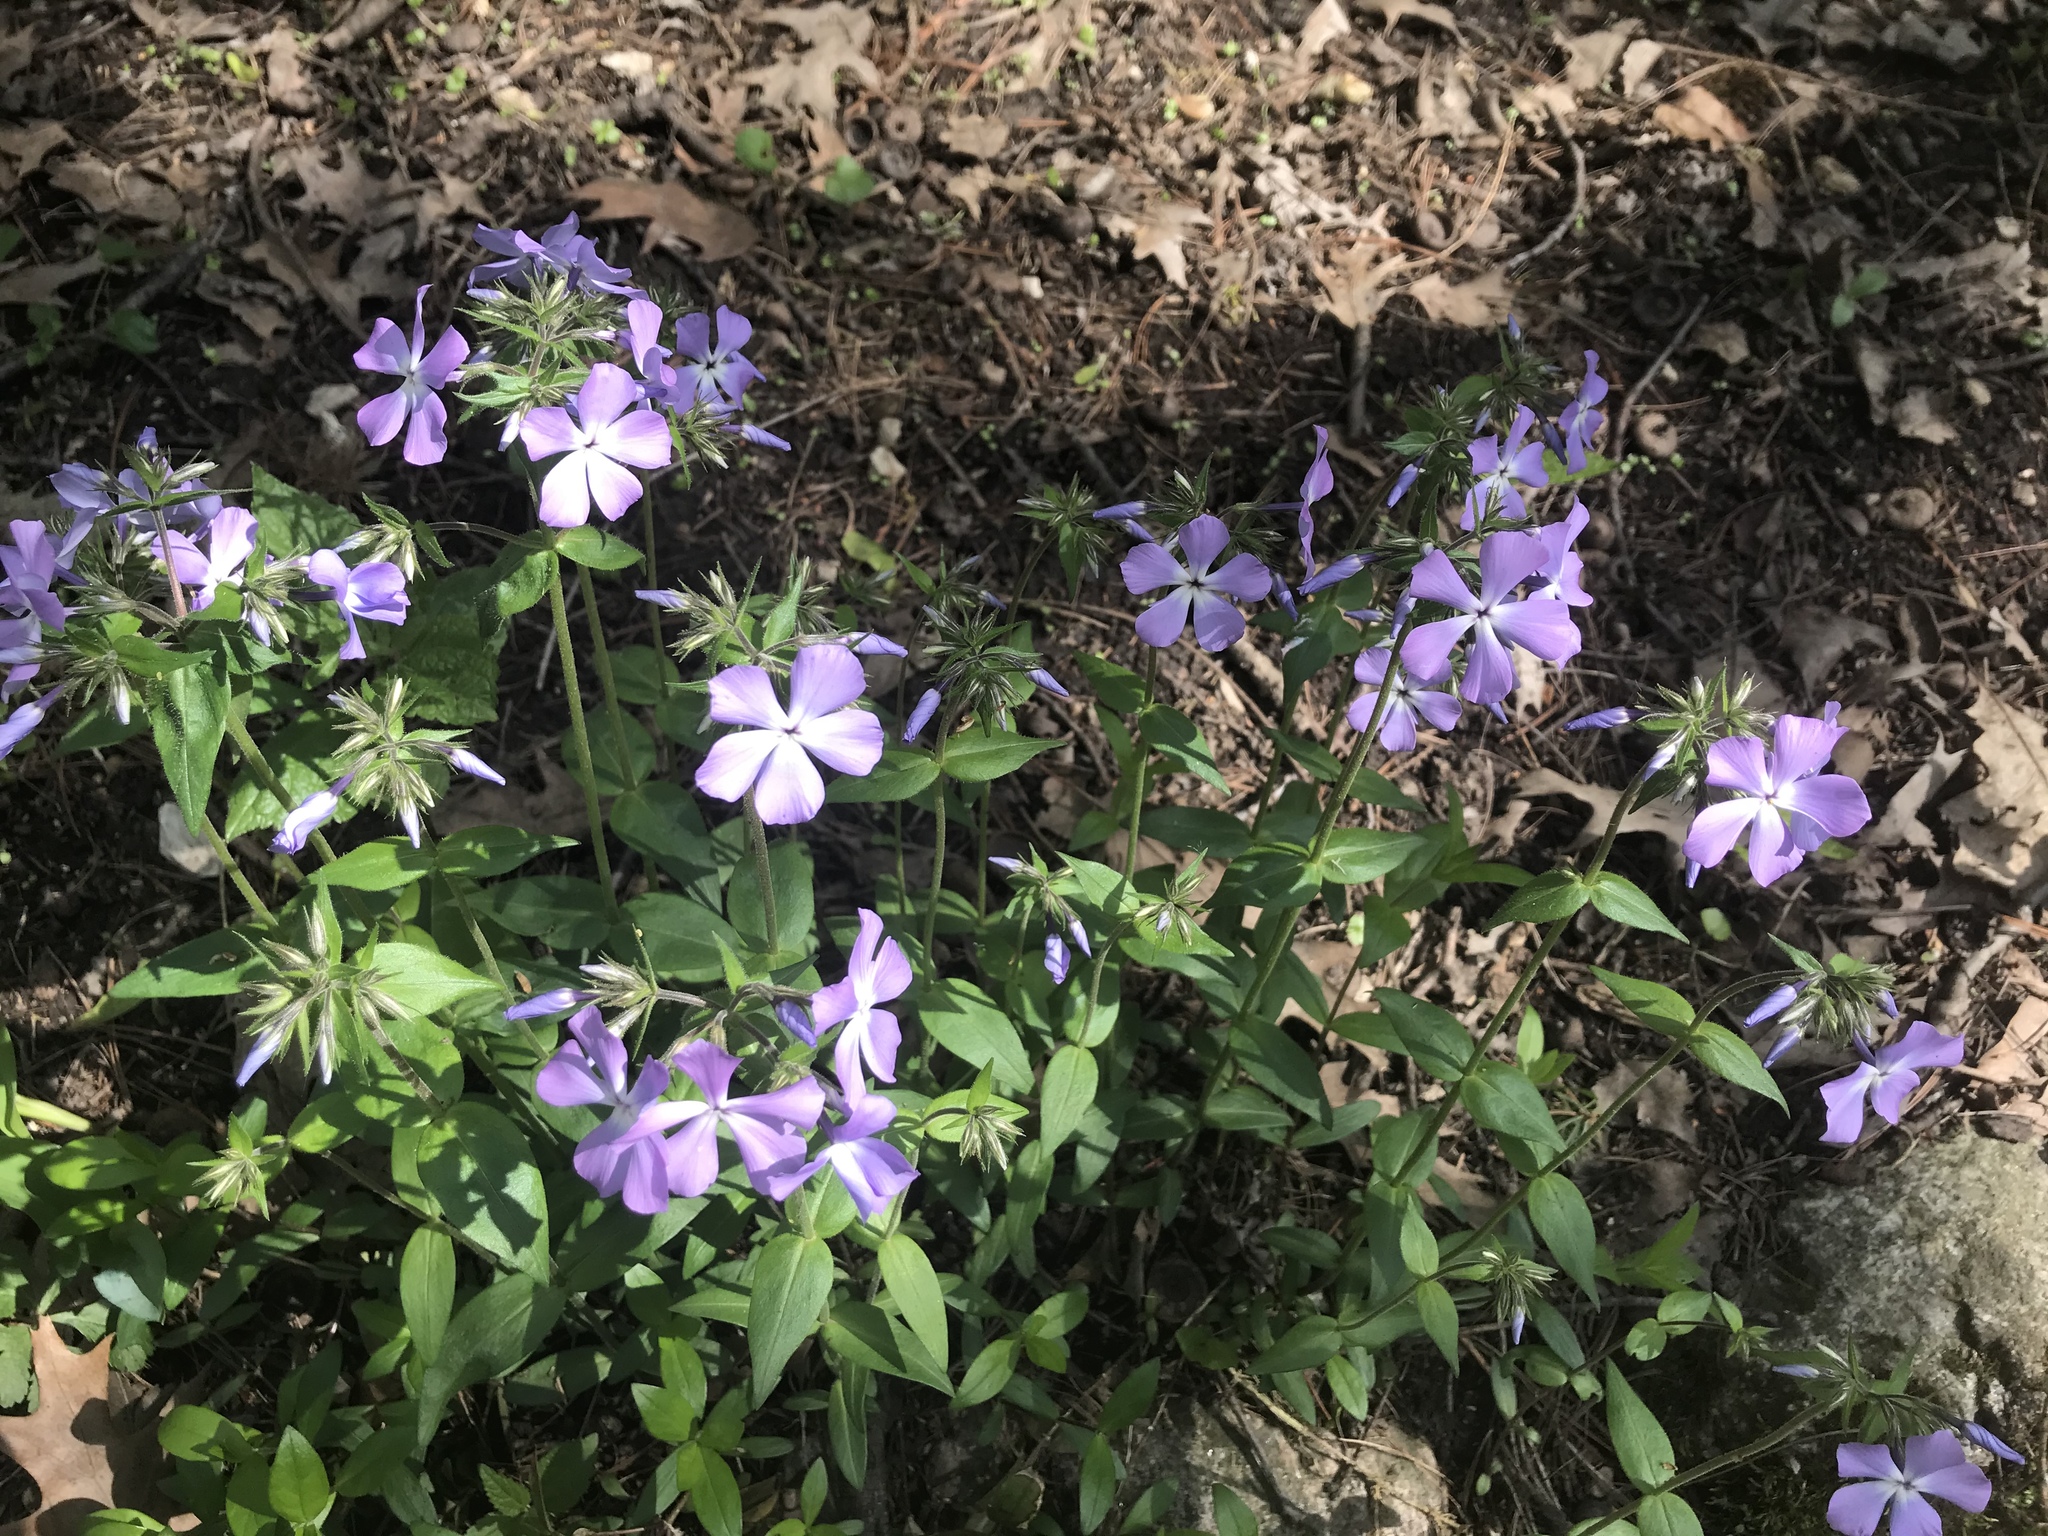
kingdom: Plantae
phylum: Tracheophyta
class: Magnoliopsida
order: Ericales
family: Polemoniaceae
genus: Phlox
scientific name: Phlox divaricata
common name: Blue phlox
